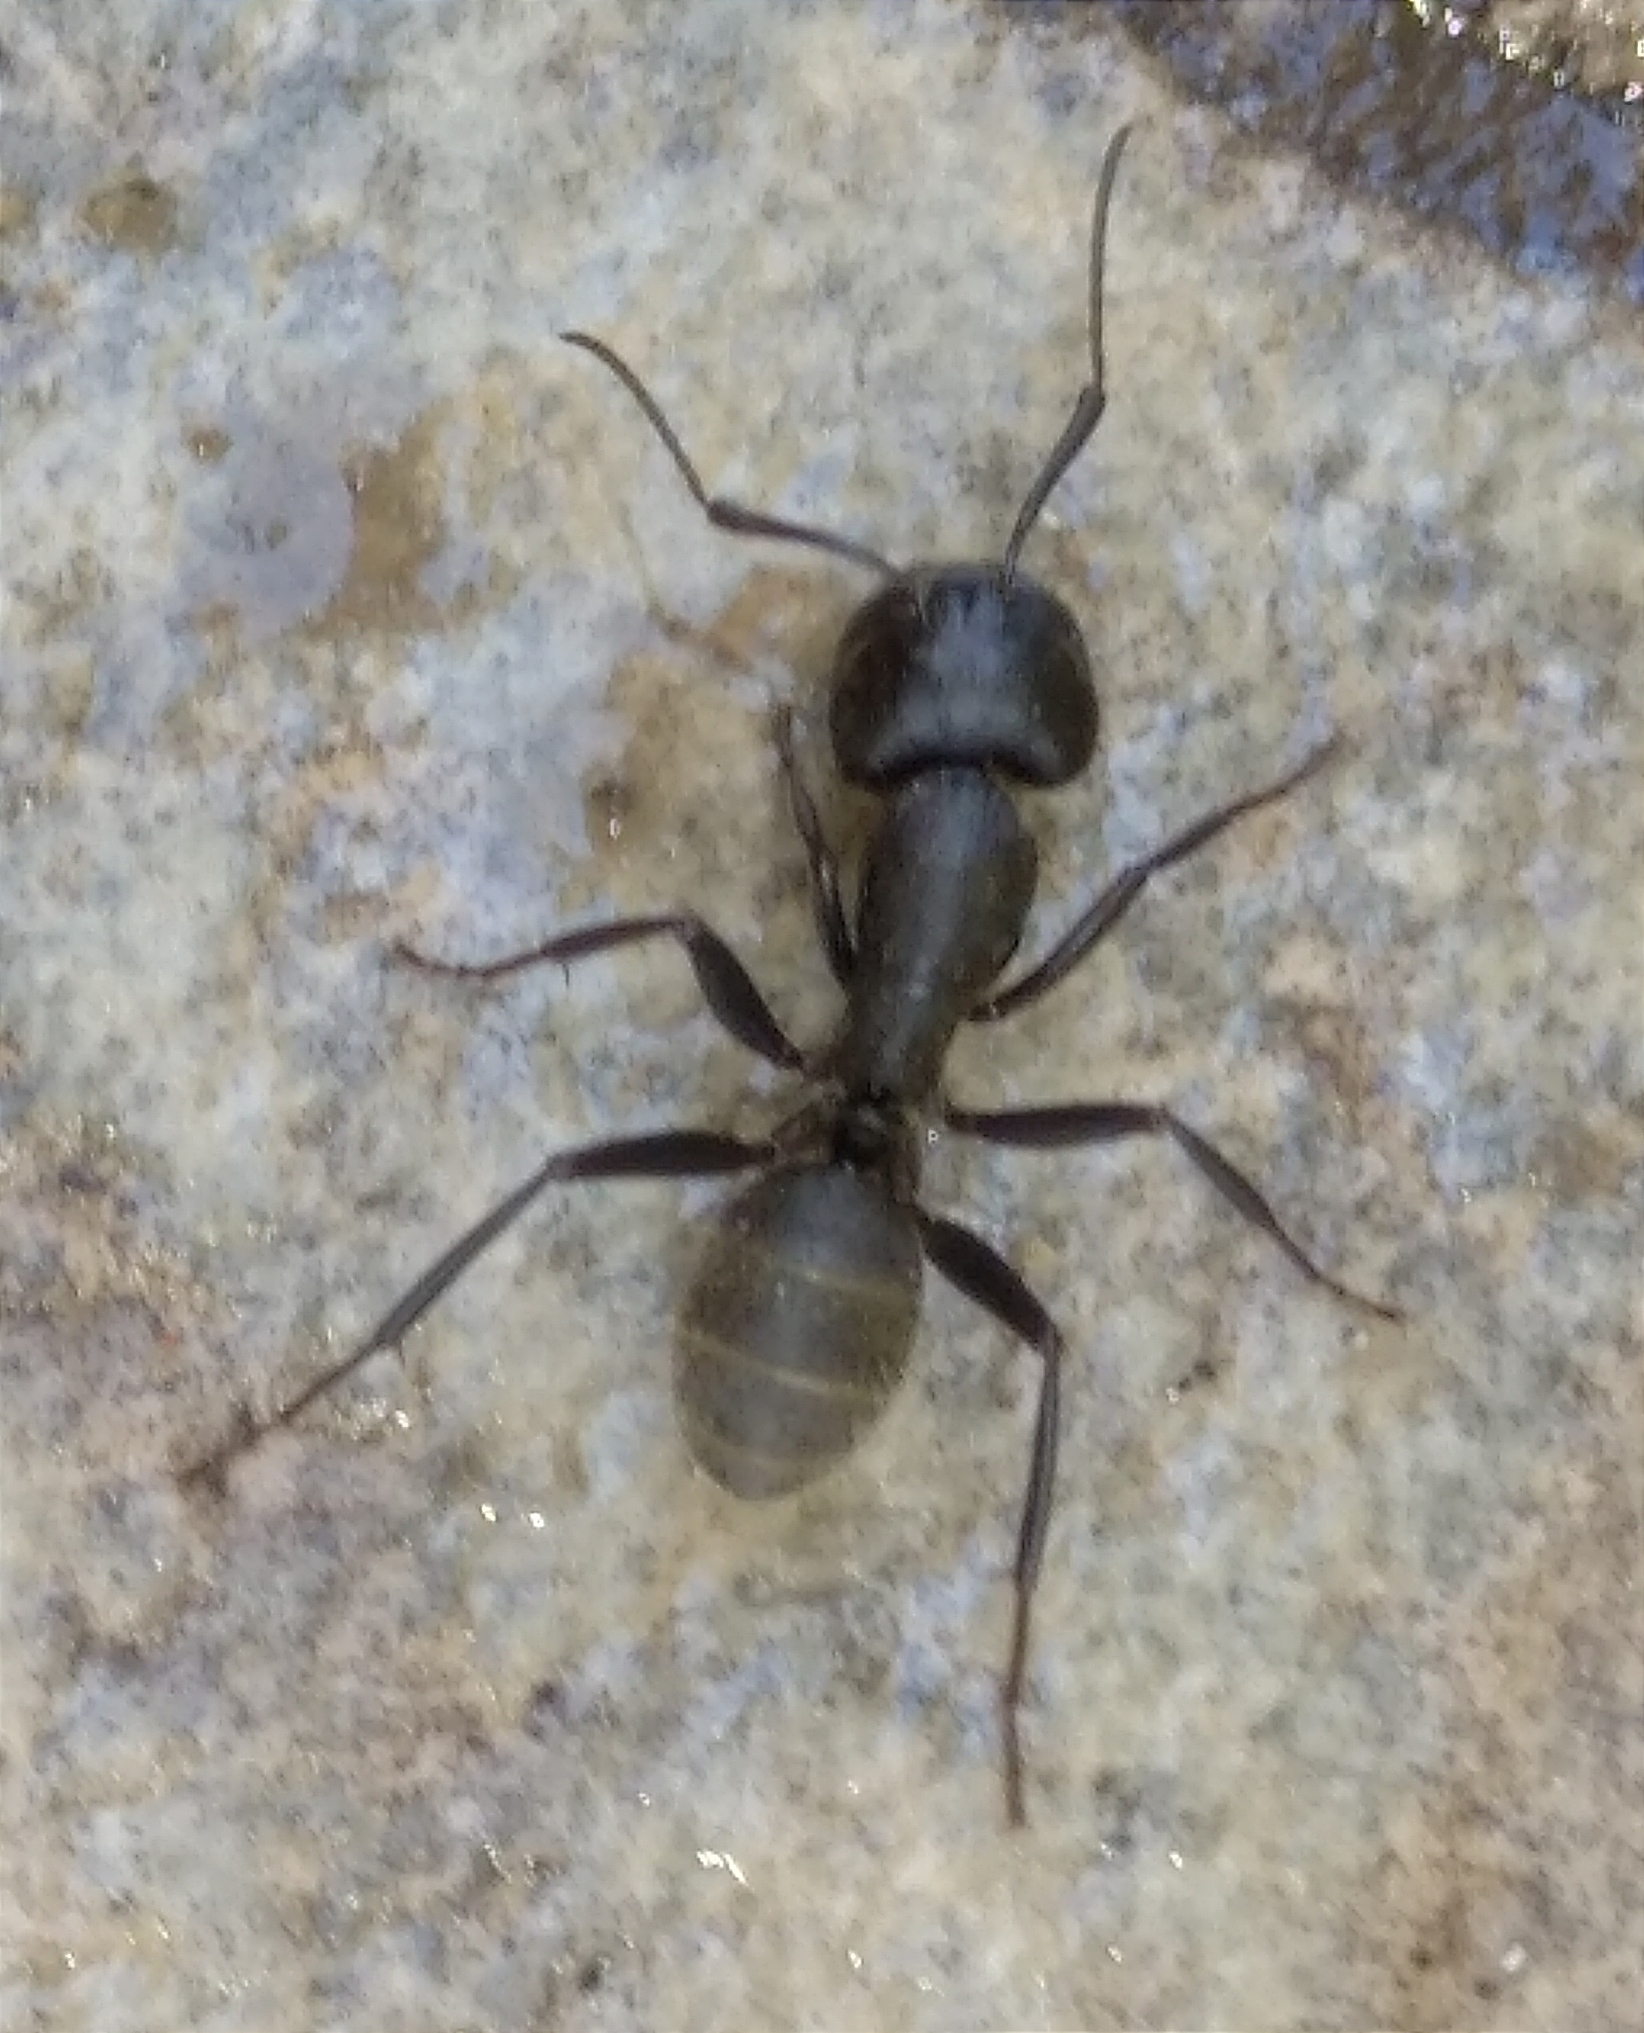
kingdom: Animalia
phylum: Arthropoda
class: Insecta
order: Hymenoptera
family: Formicidae
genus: Camponotus
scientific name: Camponotus vagus
